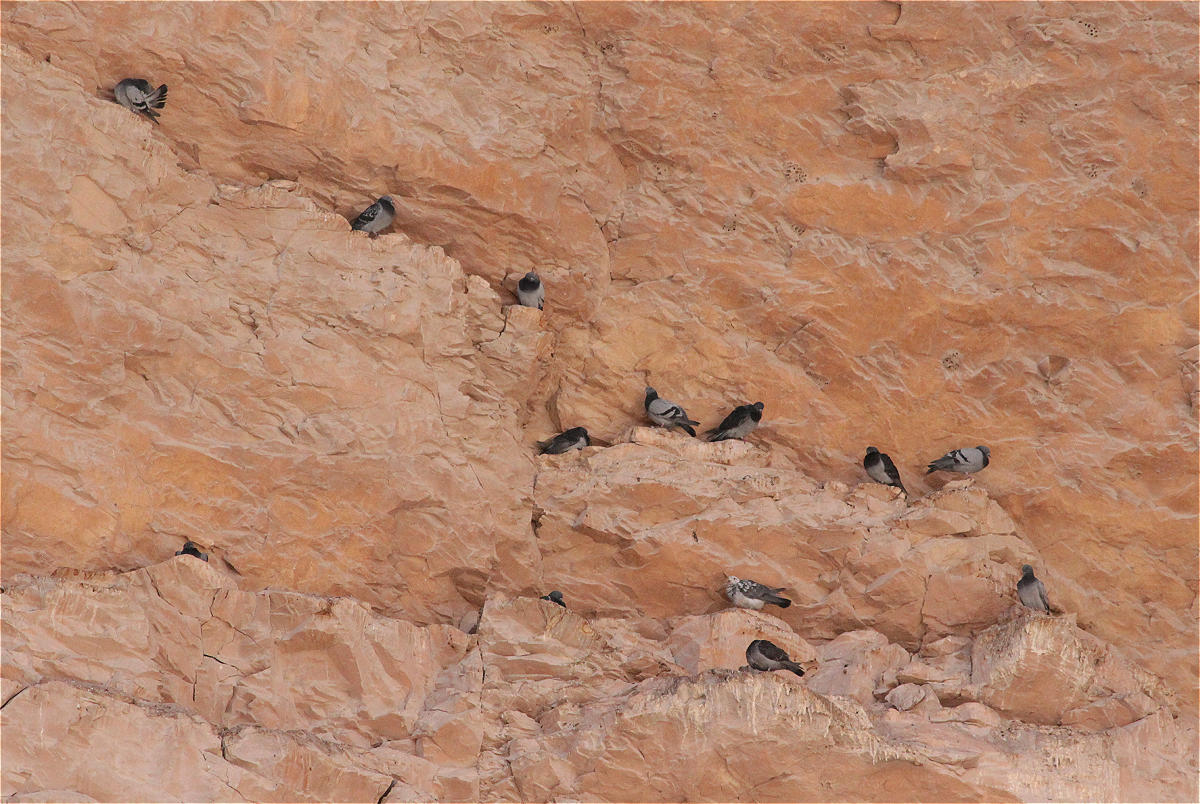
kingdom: Animalia
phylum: Chordata
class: Aves
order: Columbiformes
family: Columbidae
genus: Columba
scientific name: Columba livia
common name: Rock pigeon
